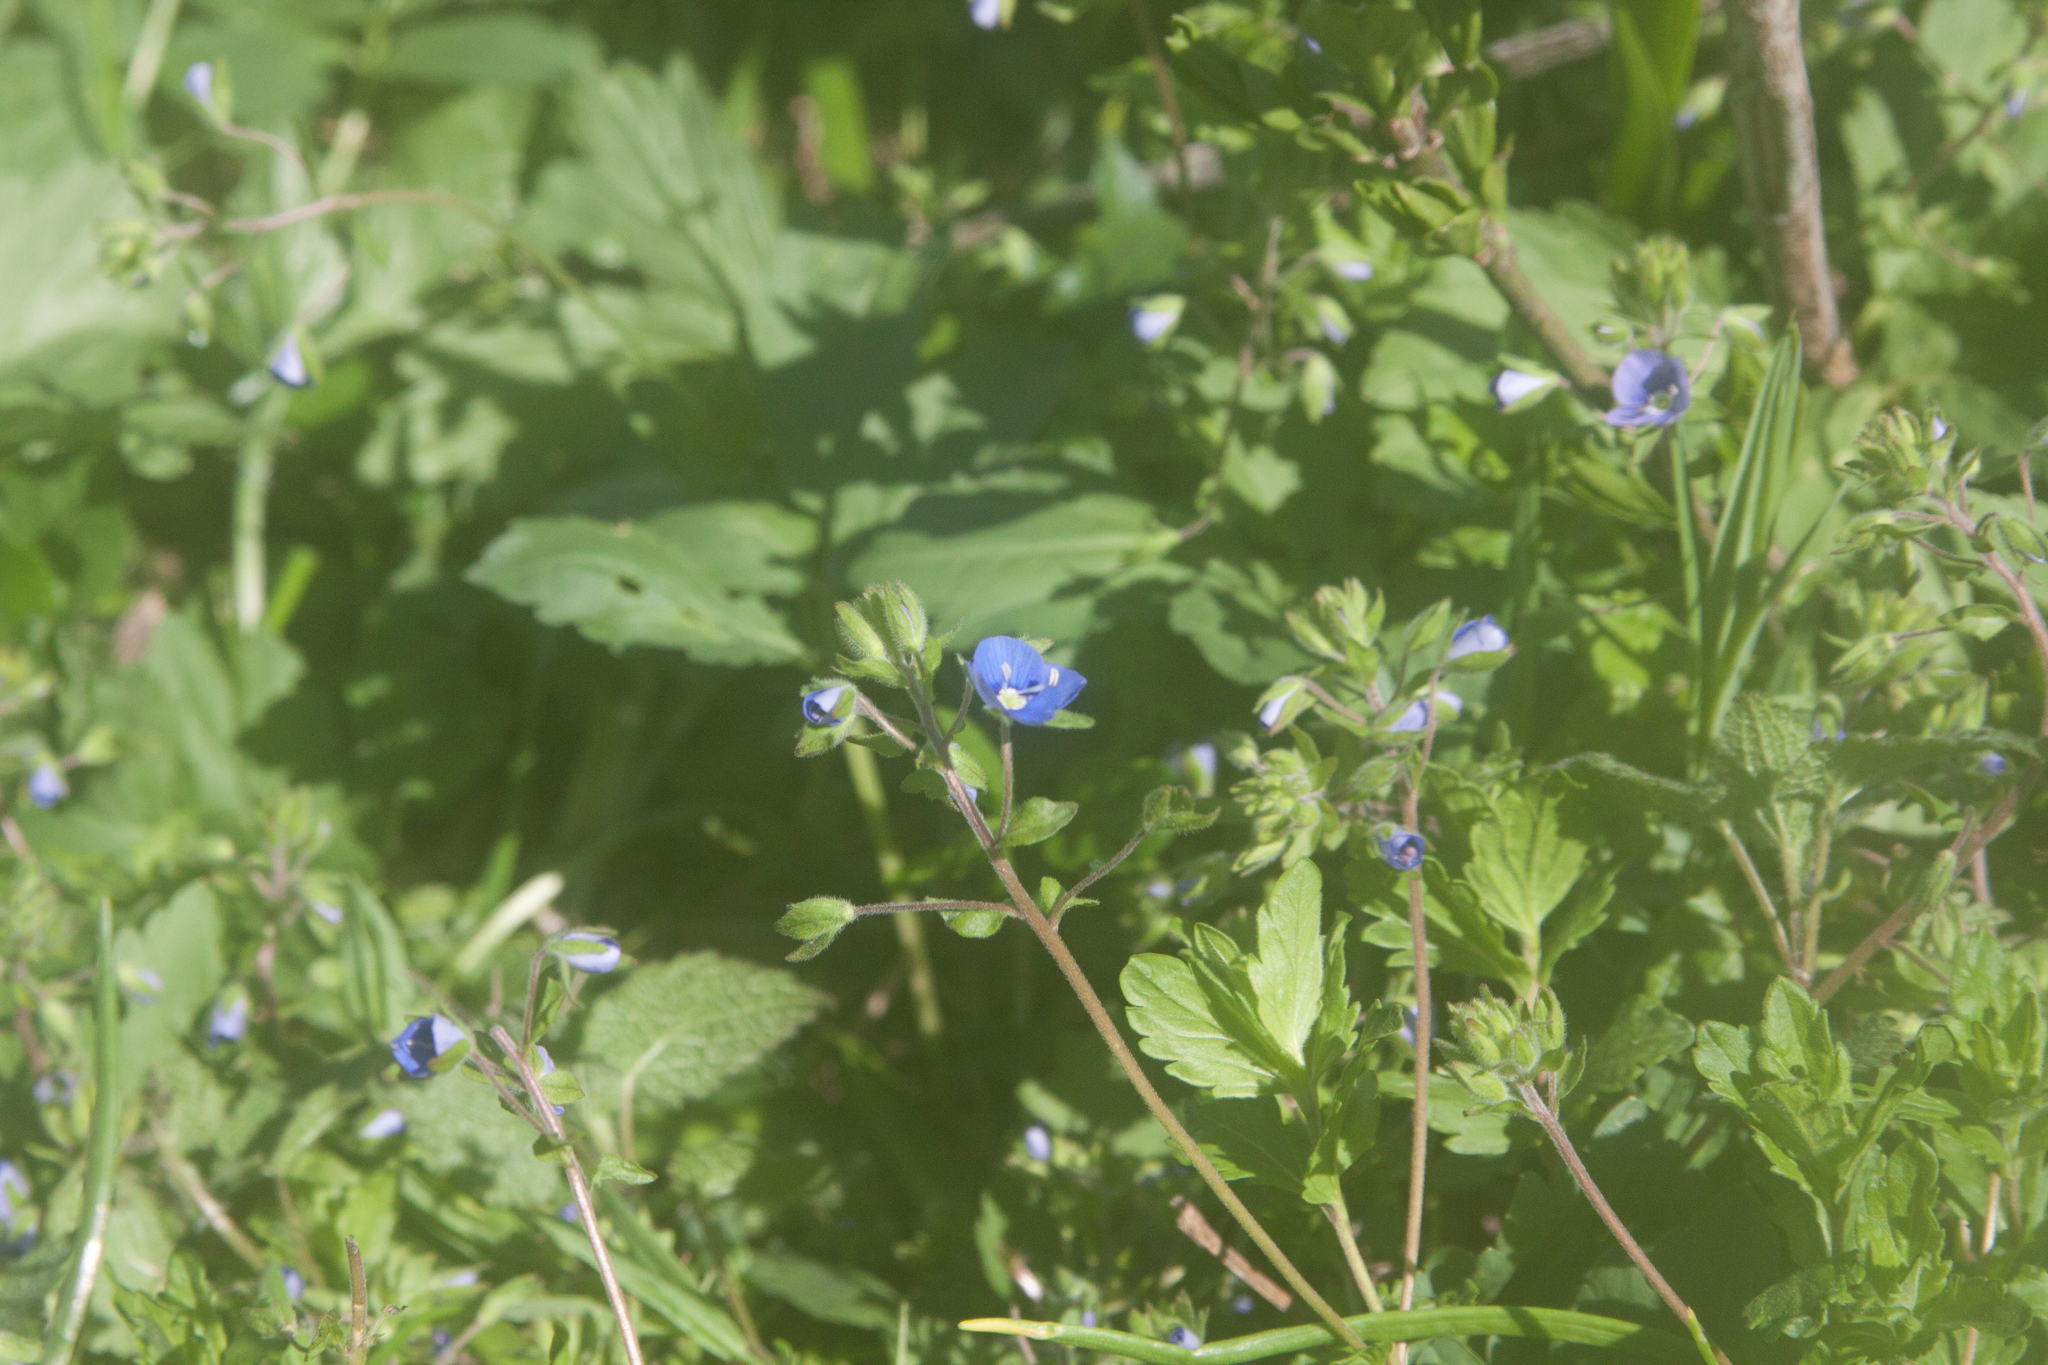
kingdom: Plantae
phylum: Tracheophyta
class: Magnoliopsida
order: Lamiales
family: Plantaginaceae
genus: Veronica
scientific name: Veronica chamaedrys
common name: Germander speedwell
